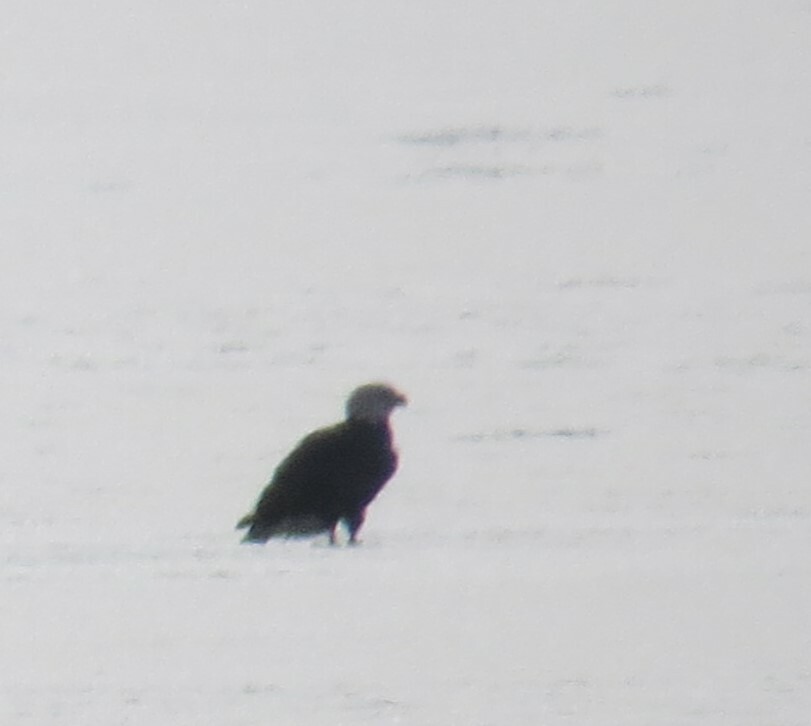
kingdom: Animalia
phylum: Chordata
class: Aves
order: Accipitriformes
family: Accipitridae
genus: Haliaeetus
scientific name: Haliaeetus leucocephalus
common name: Bald eagle
